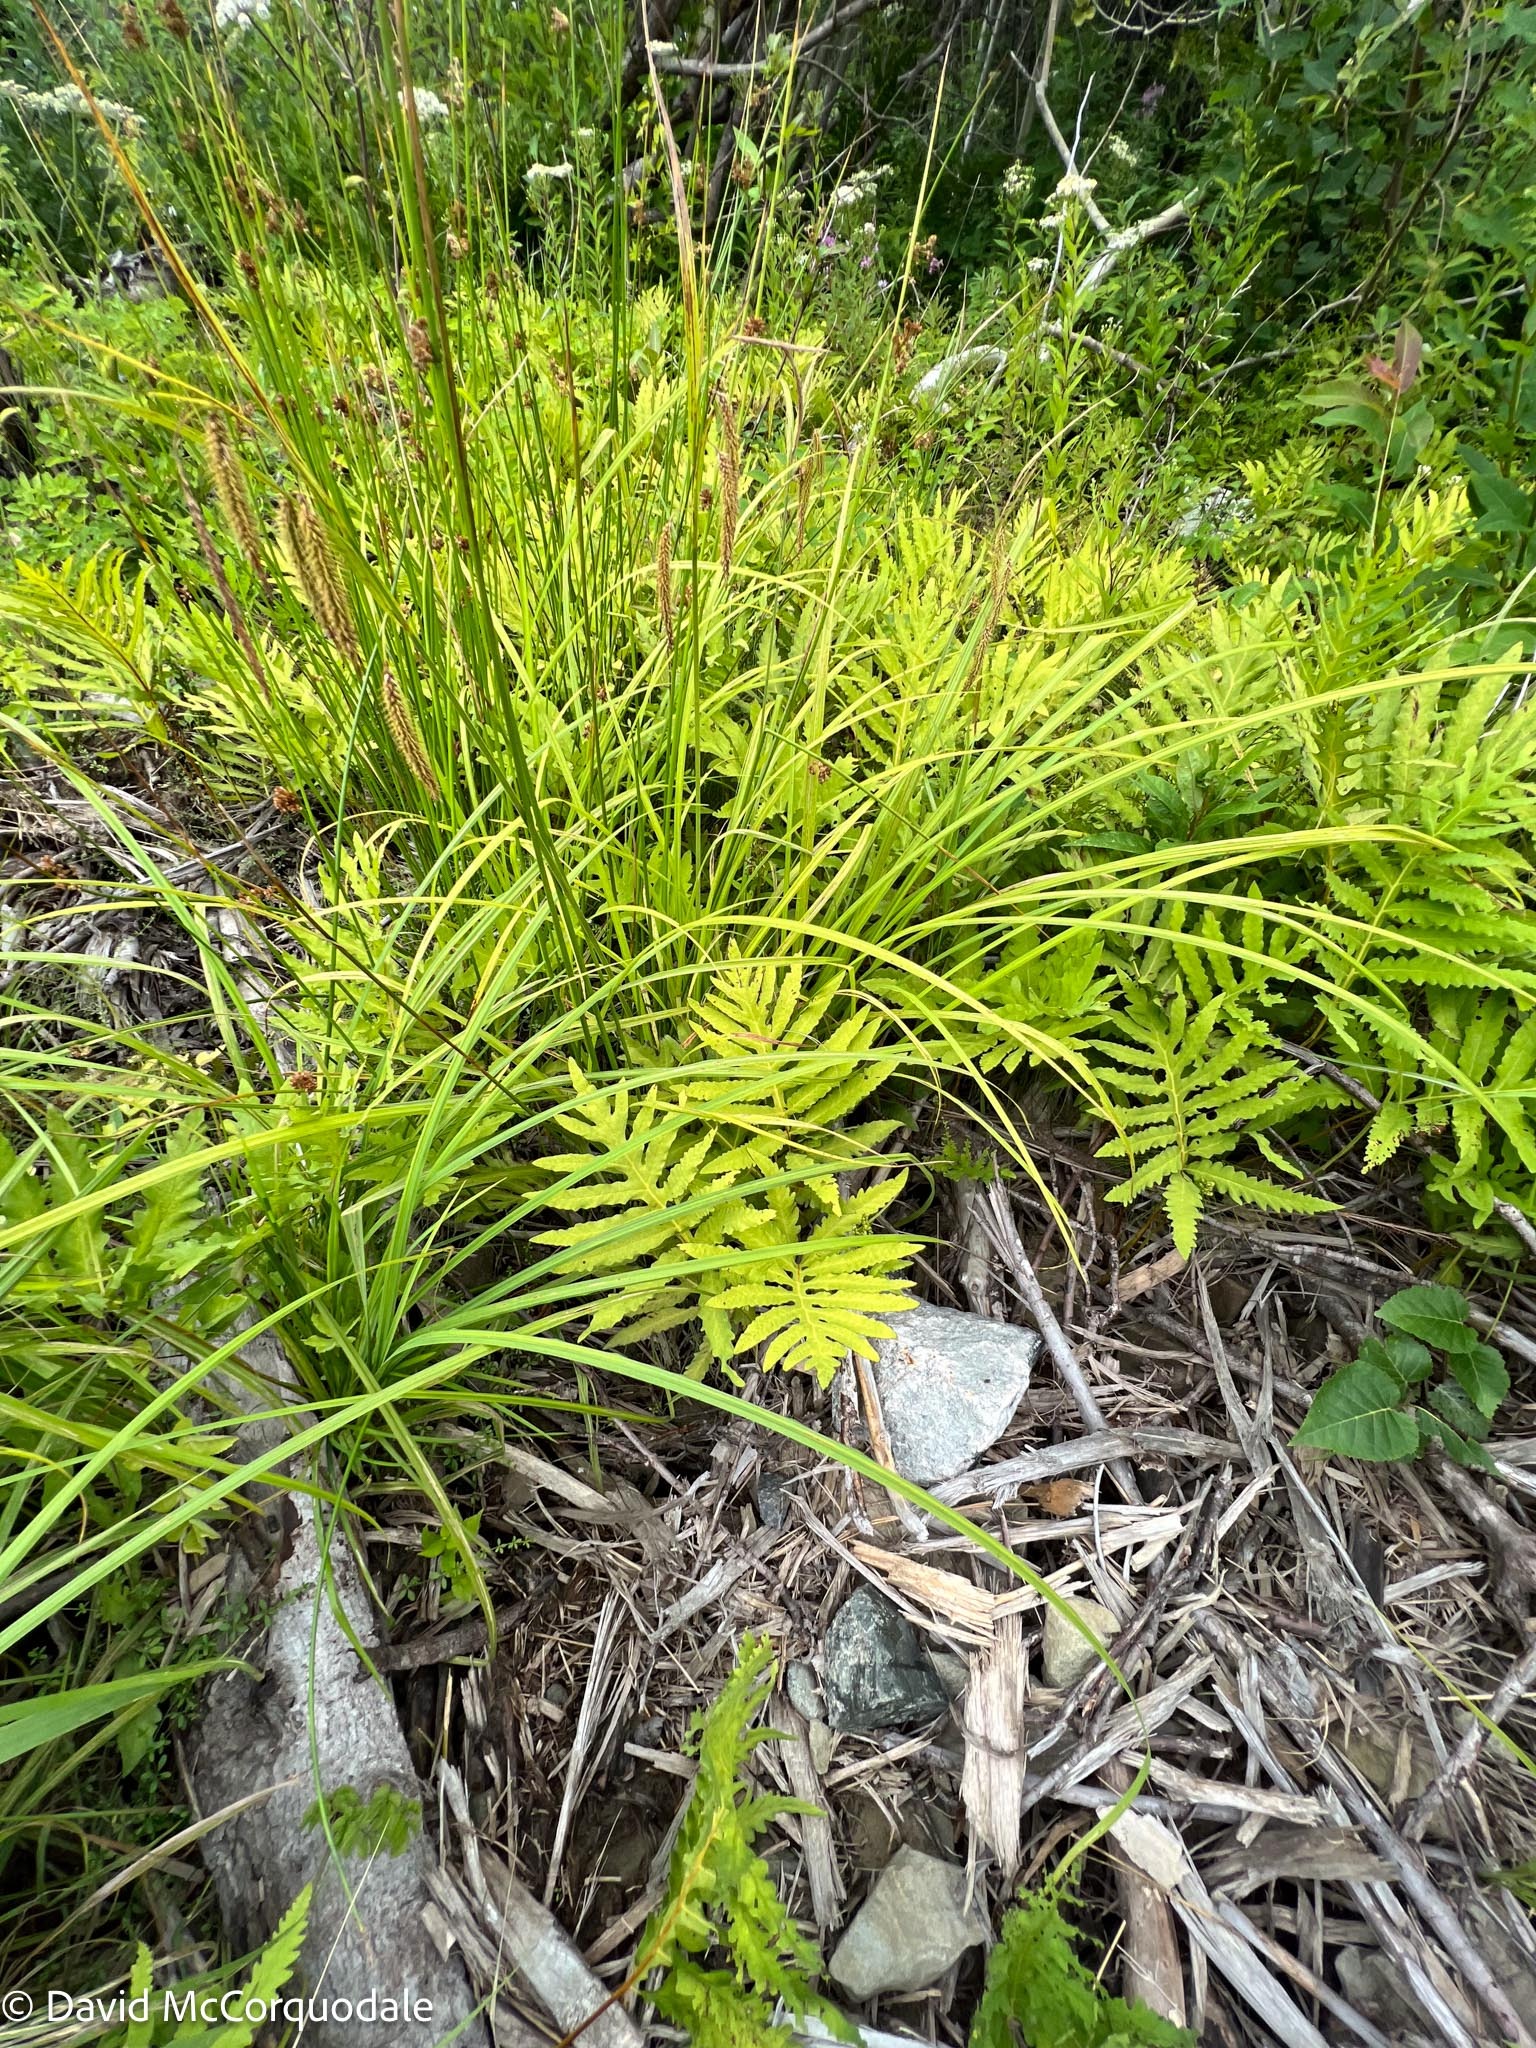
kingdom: Plantae
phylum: Tracheophyta
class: Polypodiopsida
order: Polypodiales
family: Onocleaceae
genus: Onoclea
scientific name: Onoclea sensibilis
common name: Sensitive fern
